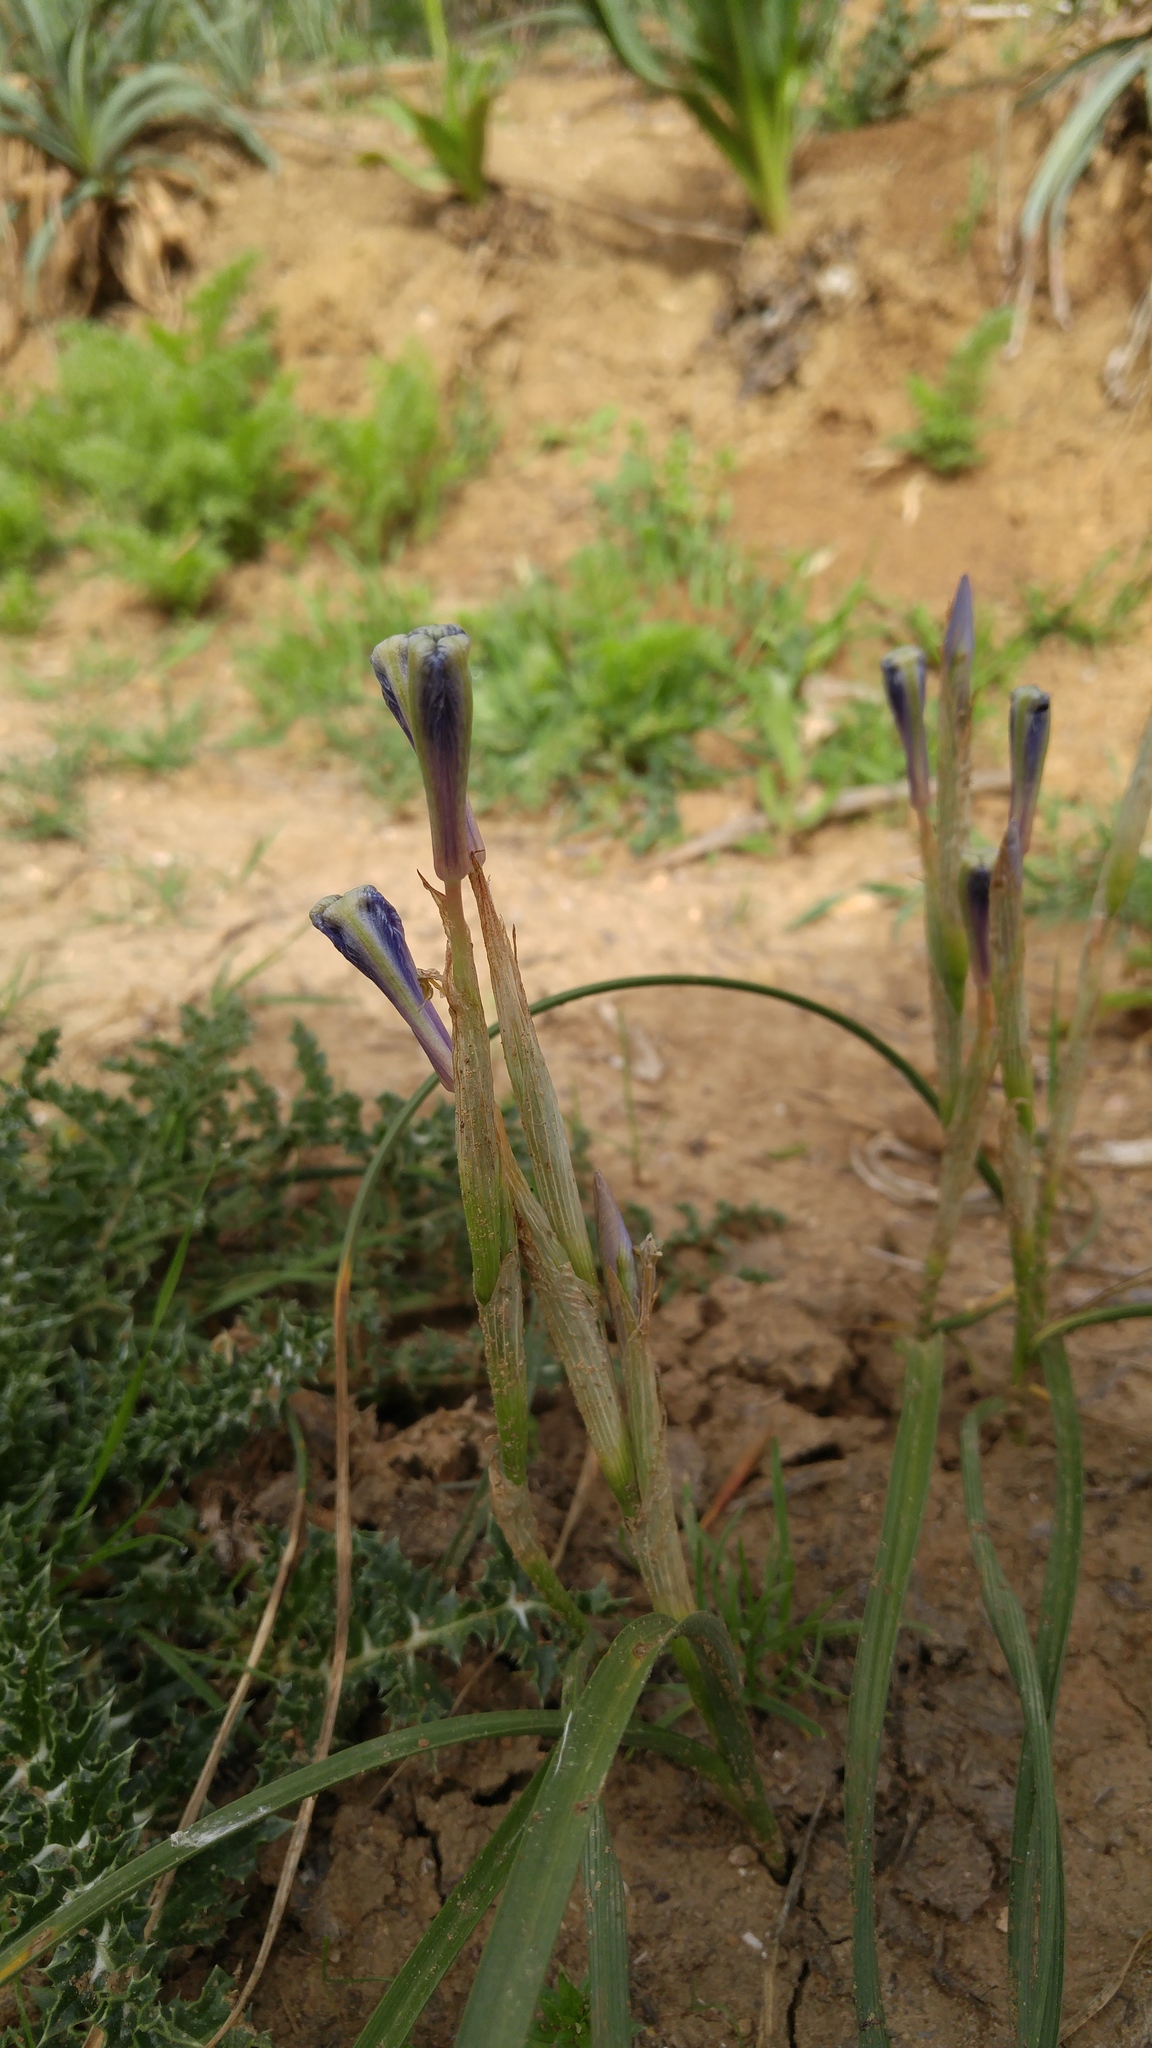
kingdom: Plantae
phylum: Tracheophyta
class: Liliopsida
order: Asparagales
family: Iridaceae
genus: Moraea
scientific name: Moraea sisyrinchium
